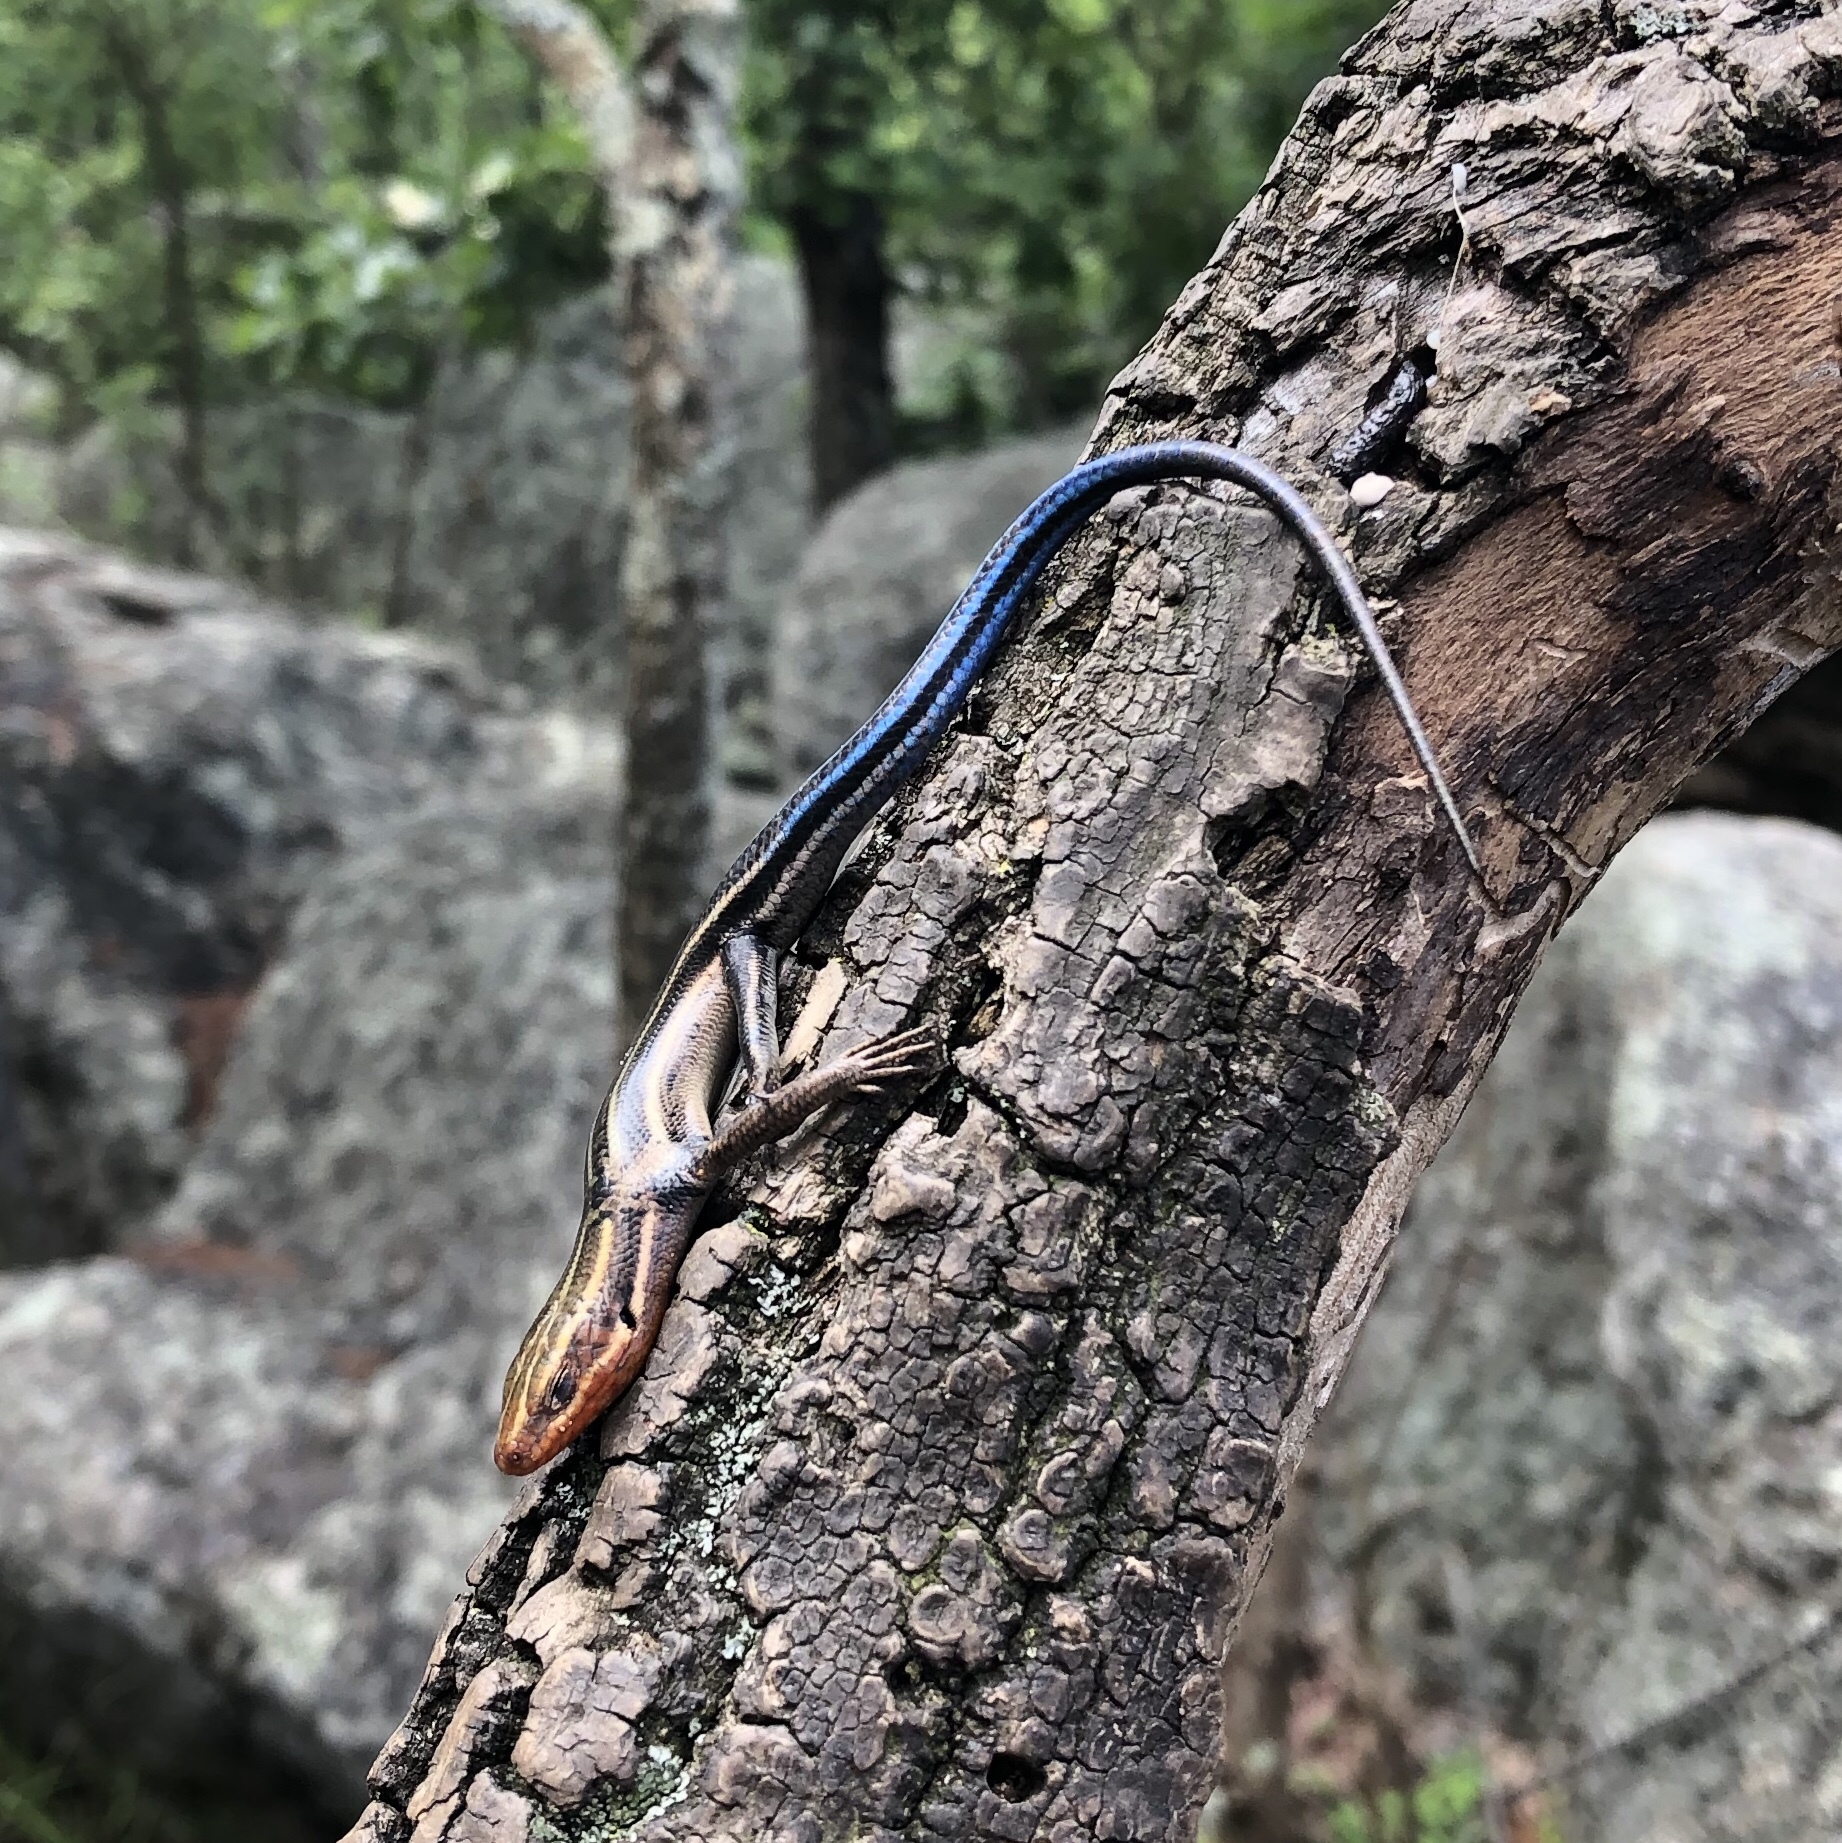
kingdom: Animalia
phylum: Chordata
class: Squamata
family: Scincidae
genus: Plestiodon
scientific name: Plestiodon fasciatus
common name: Five-lined skink
